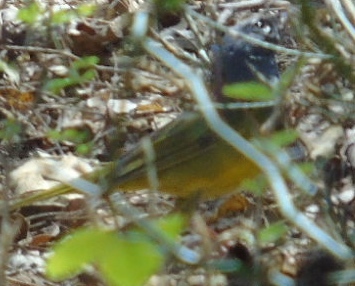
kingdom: Animalia
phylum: Chordata
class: Aves
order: Passeriformes
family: Parulidae
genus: Geothlypis
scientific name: Geothlypis tolmiei
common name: Macgillivray's warbler
